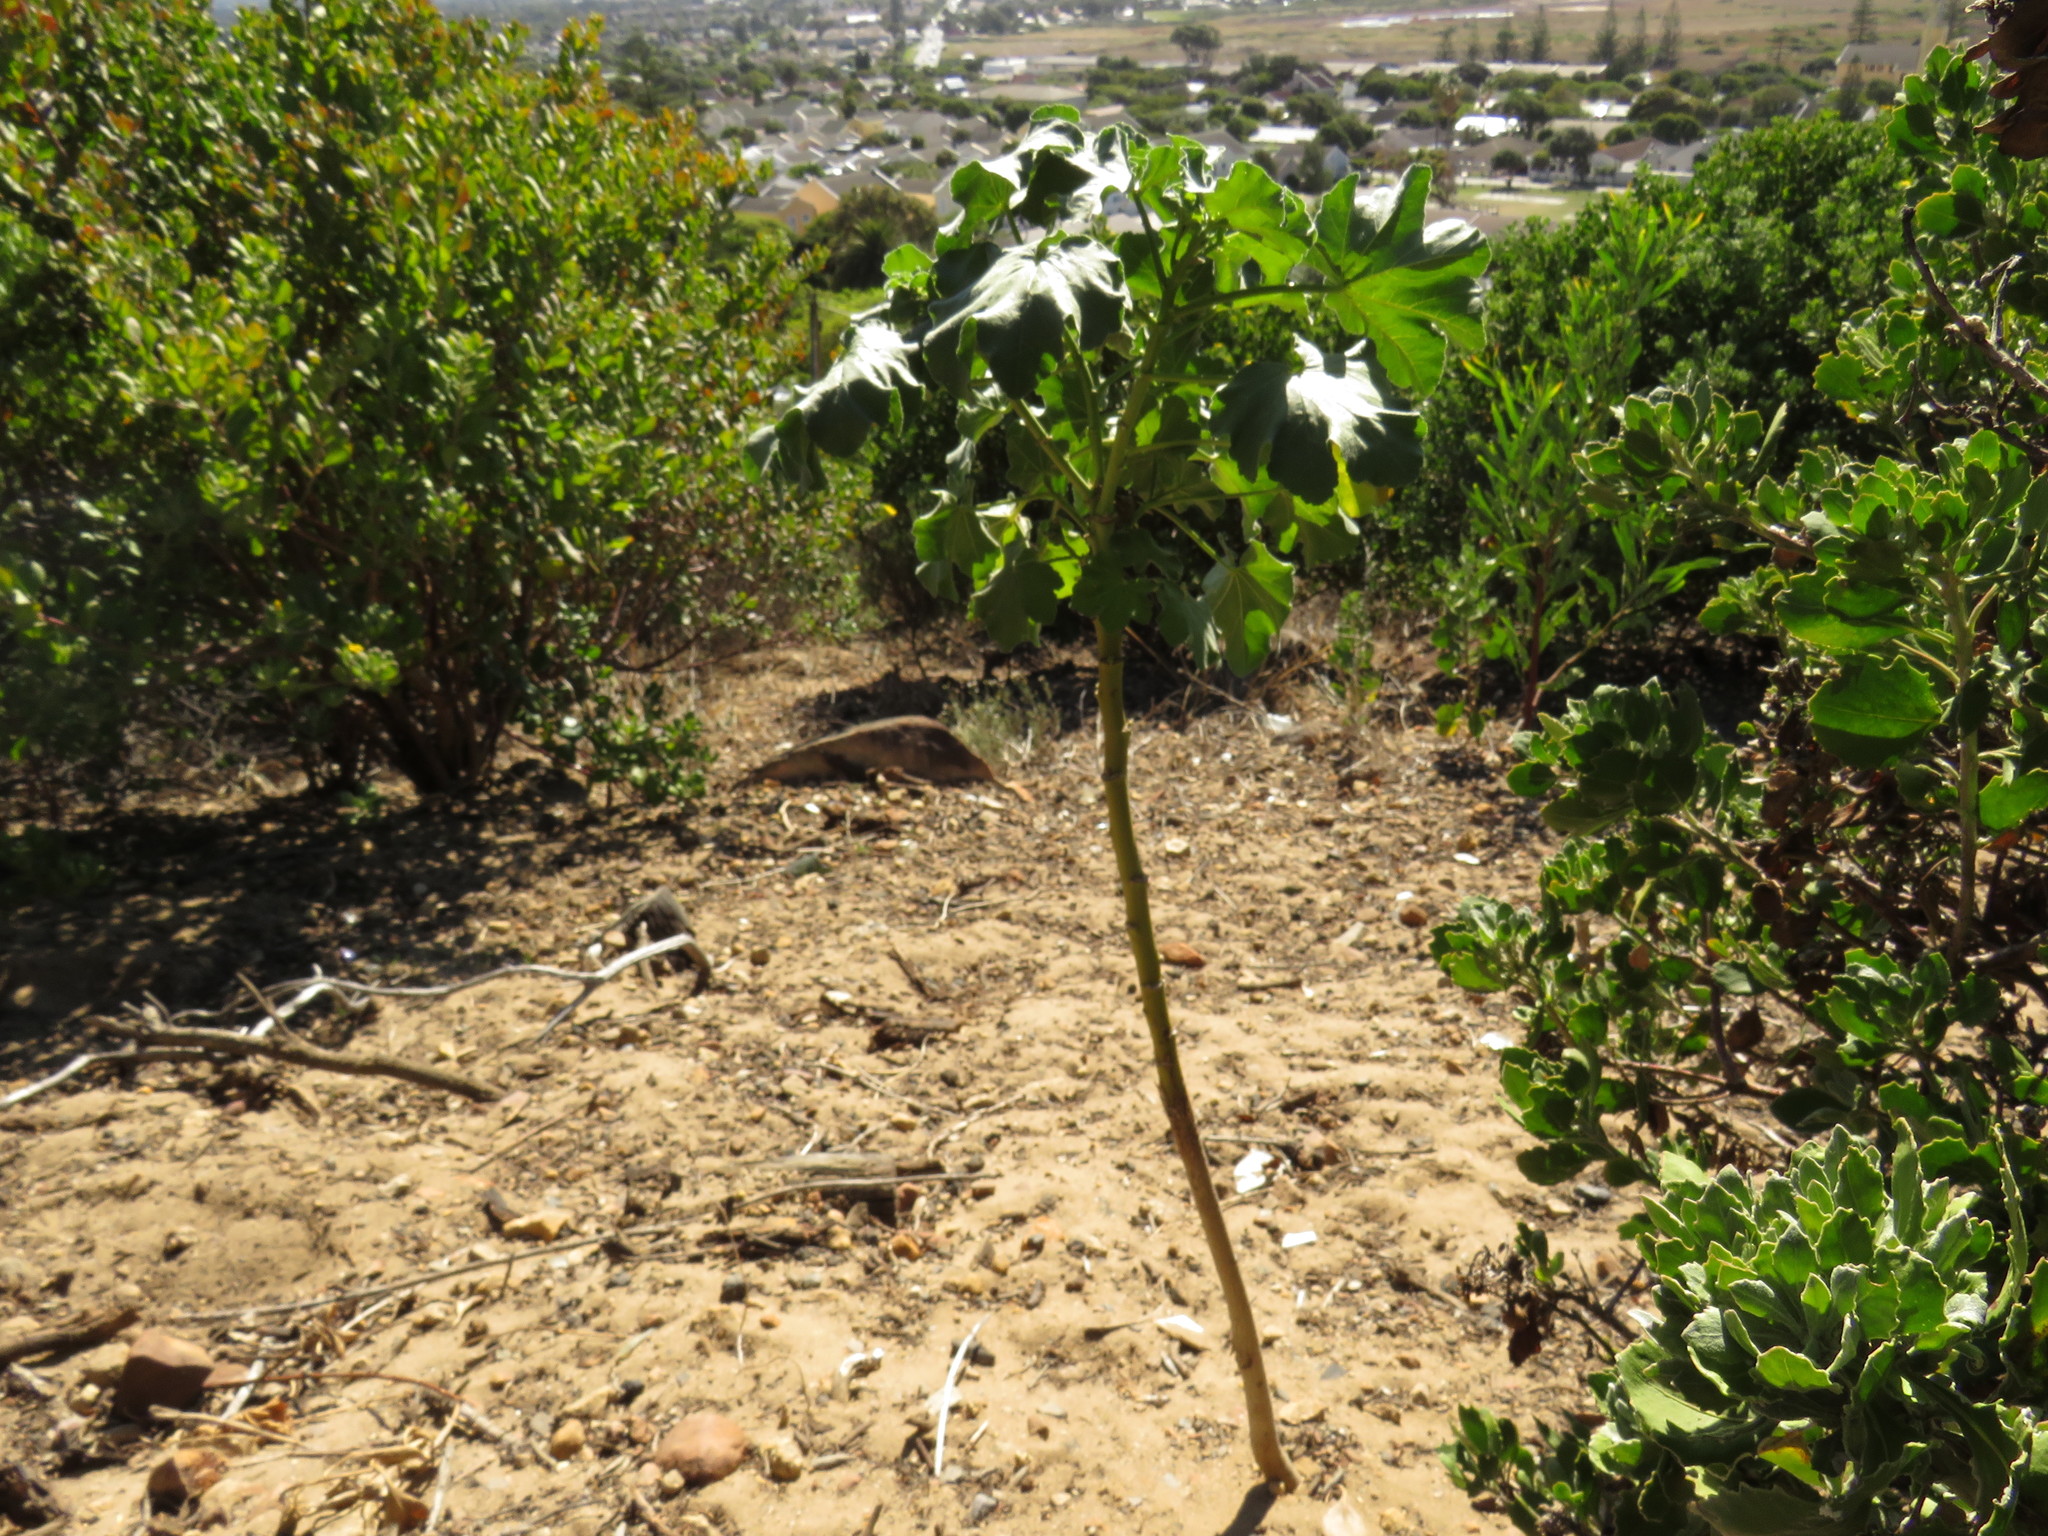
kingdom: Plantae
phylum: Tracheophyta
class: Magnoliopsida
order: Malvales
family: Malvaceae
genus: Malva
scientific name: Malva arborea
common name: Tree mallow
